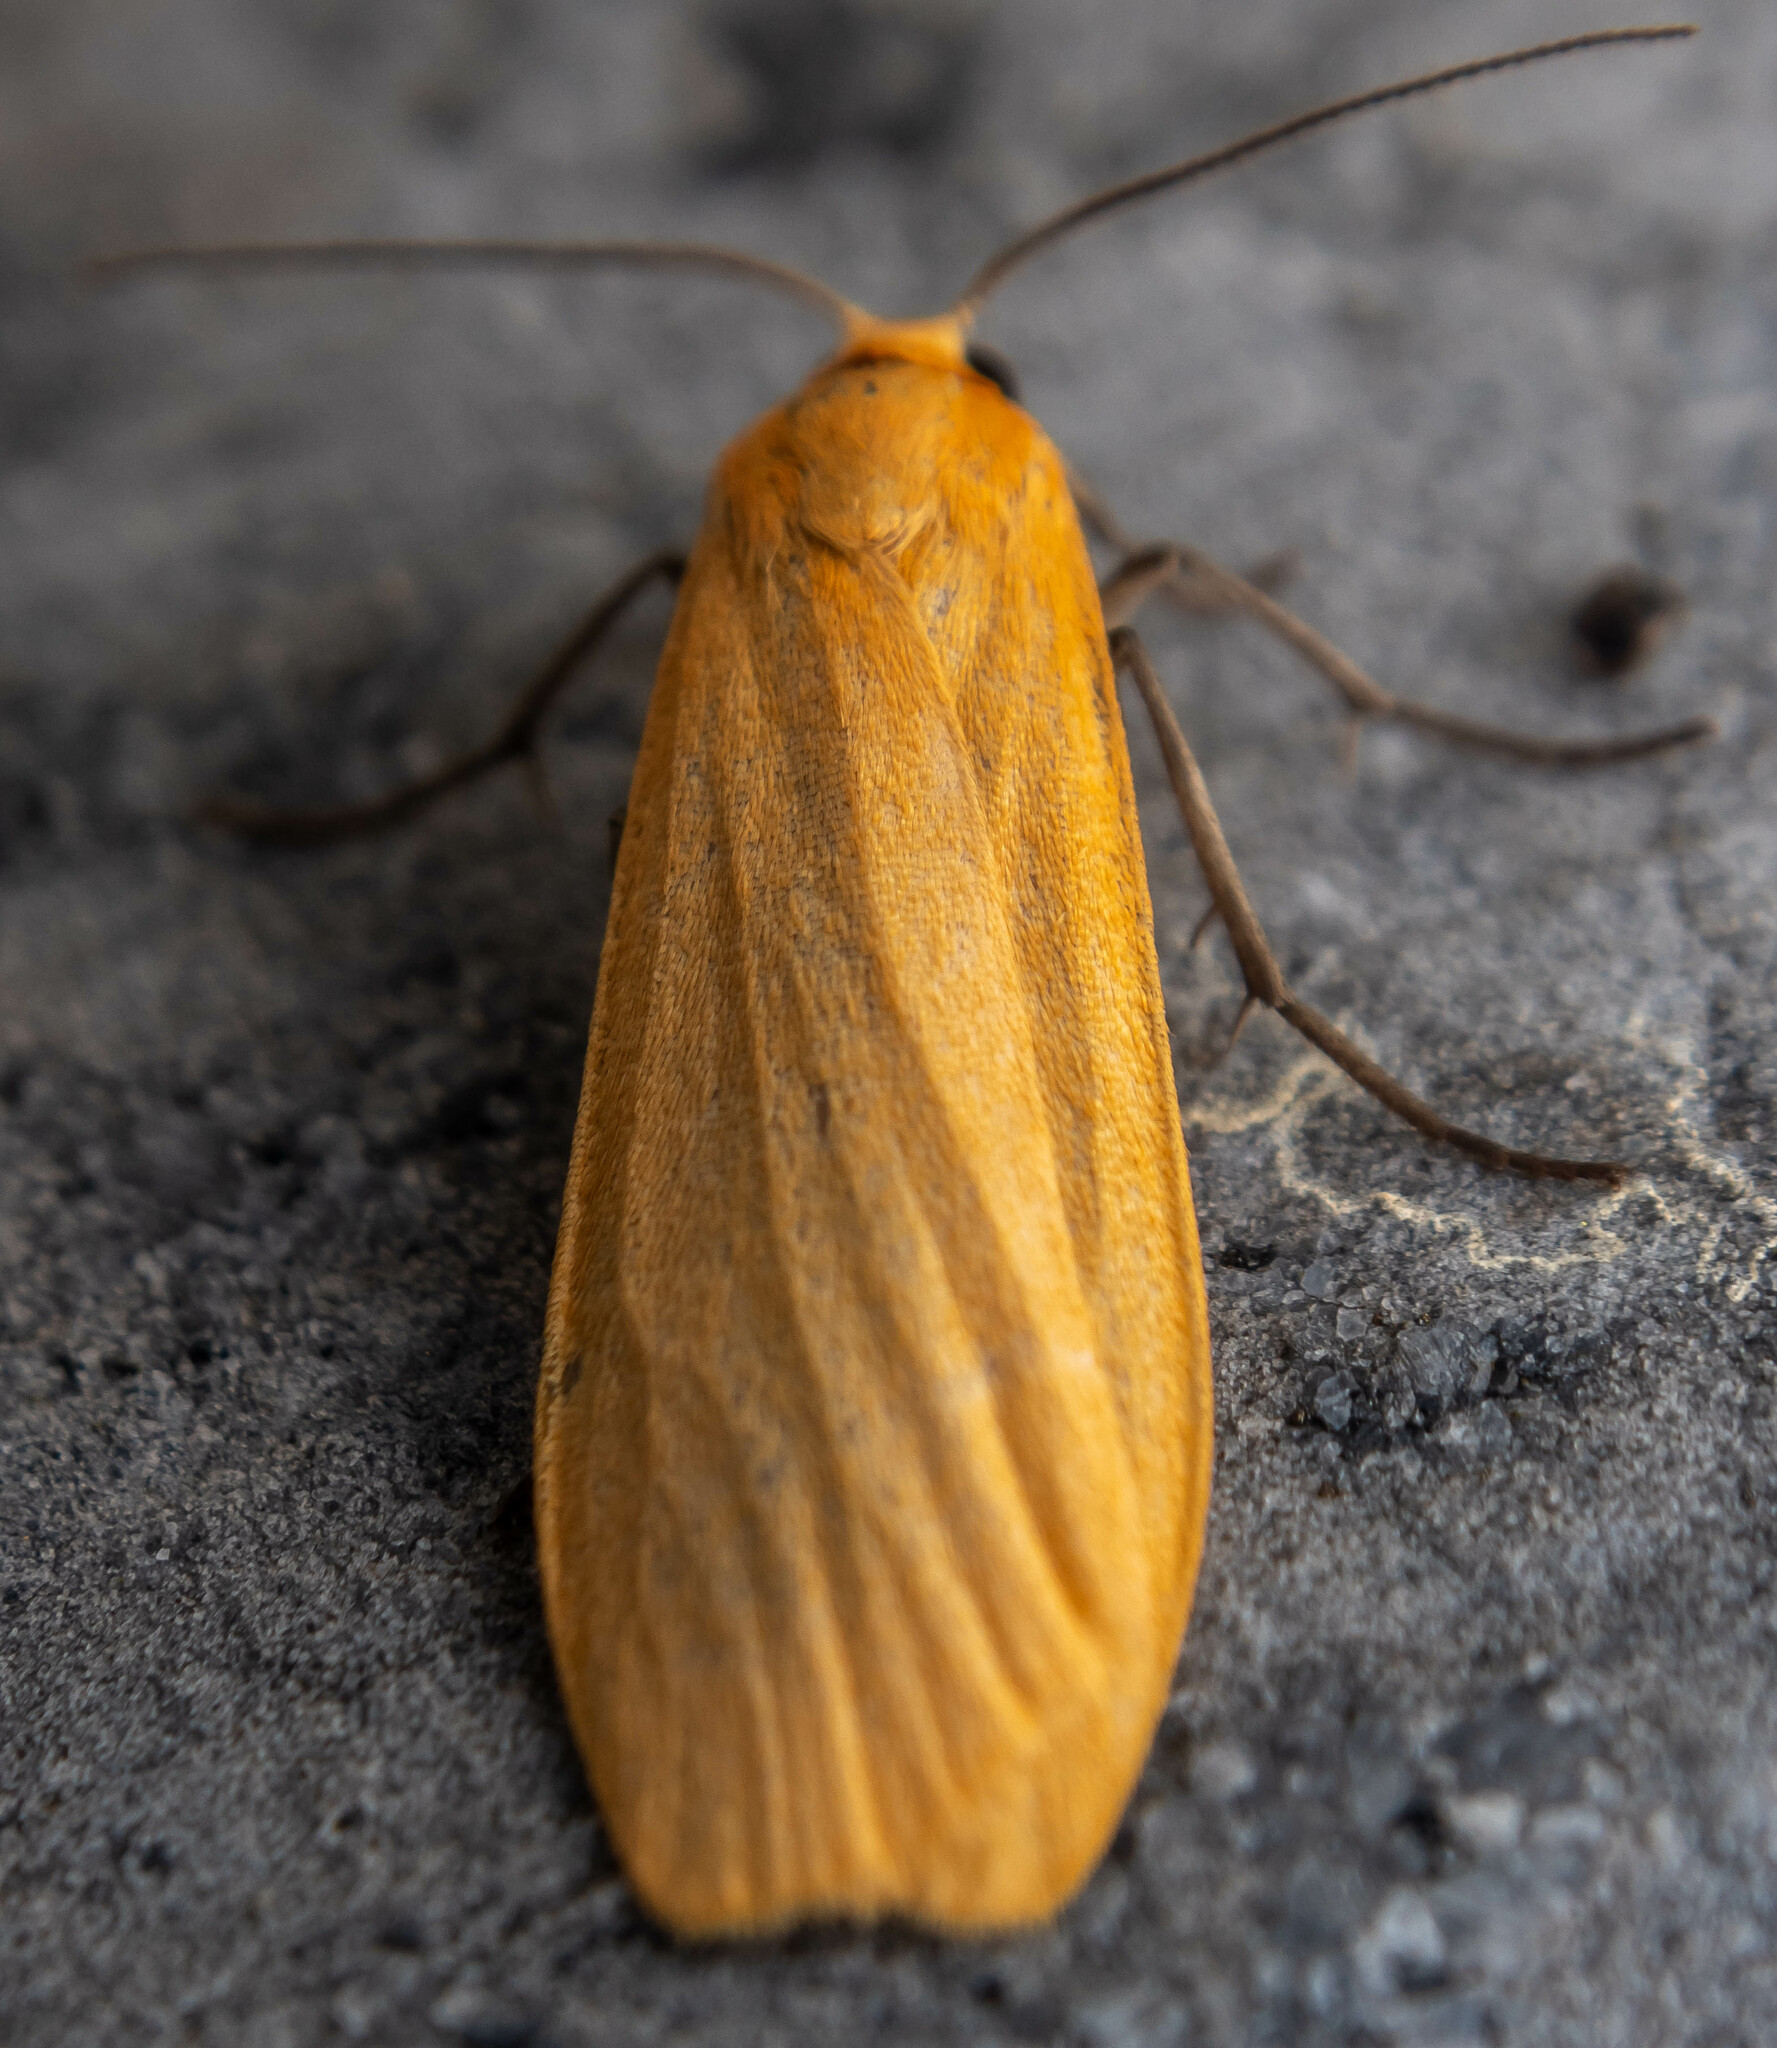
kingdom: Animalia
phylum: Arthropoda
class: Insecta
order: Lepidoptera
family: Erebidae
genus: Wittia
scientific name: Wittia sororcula
